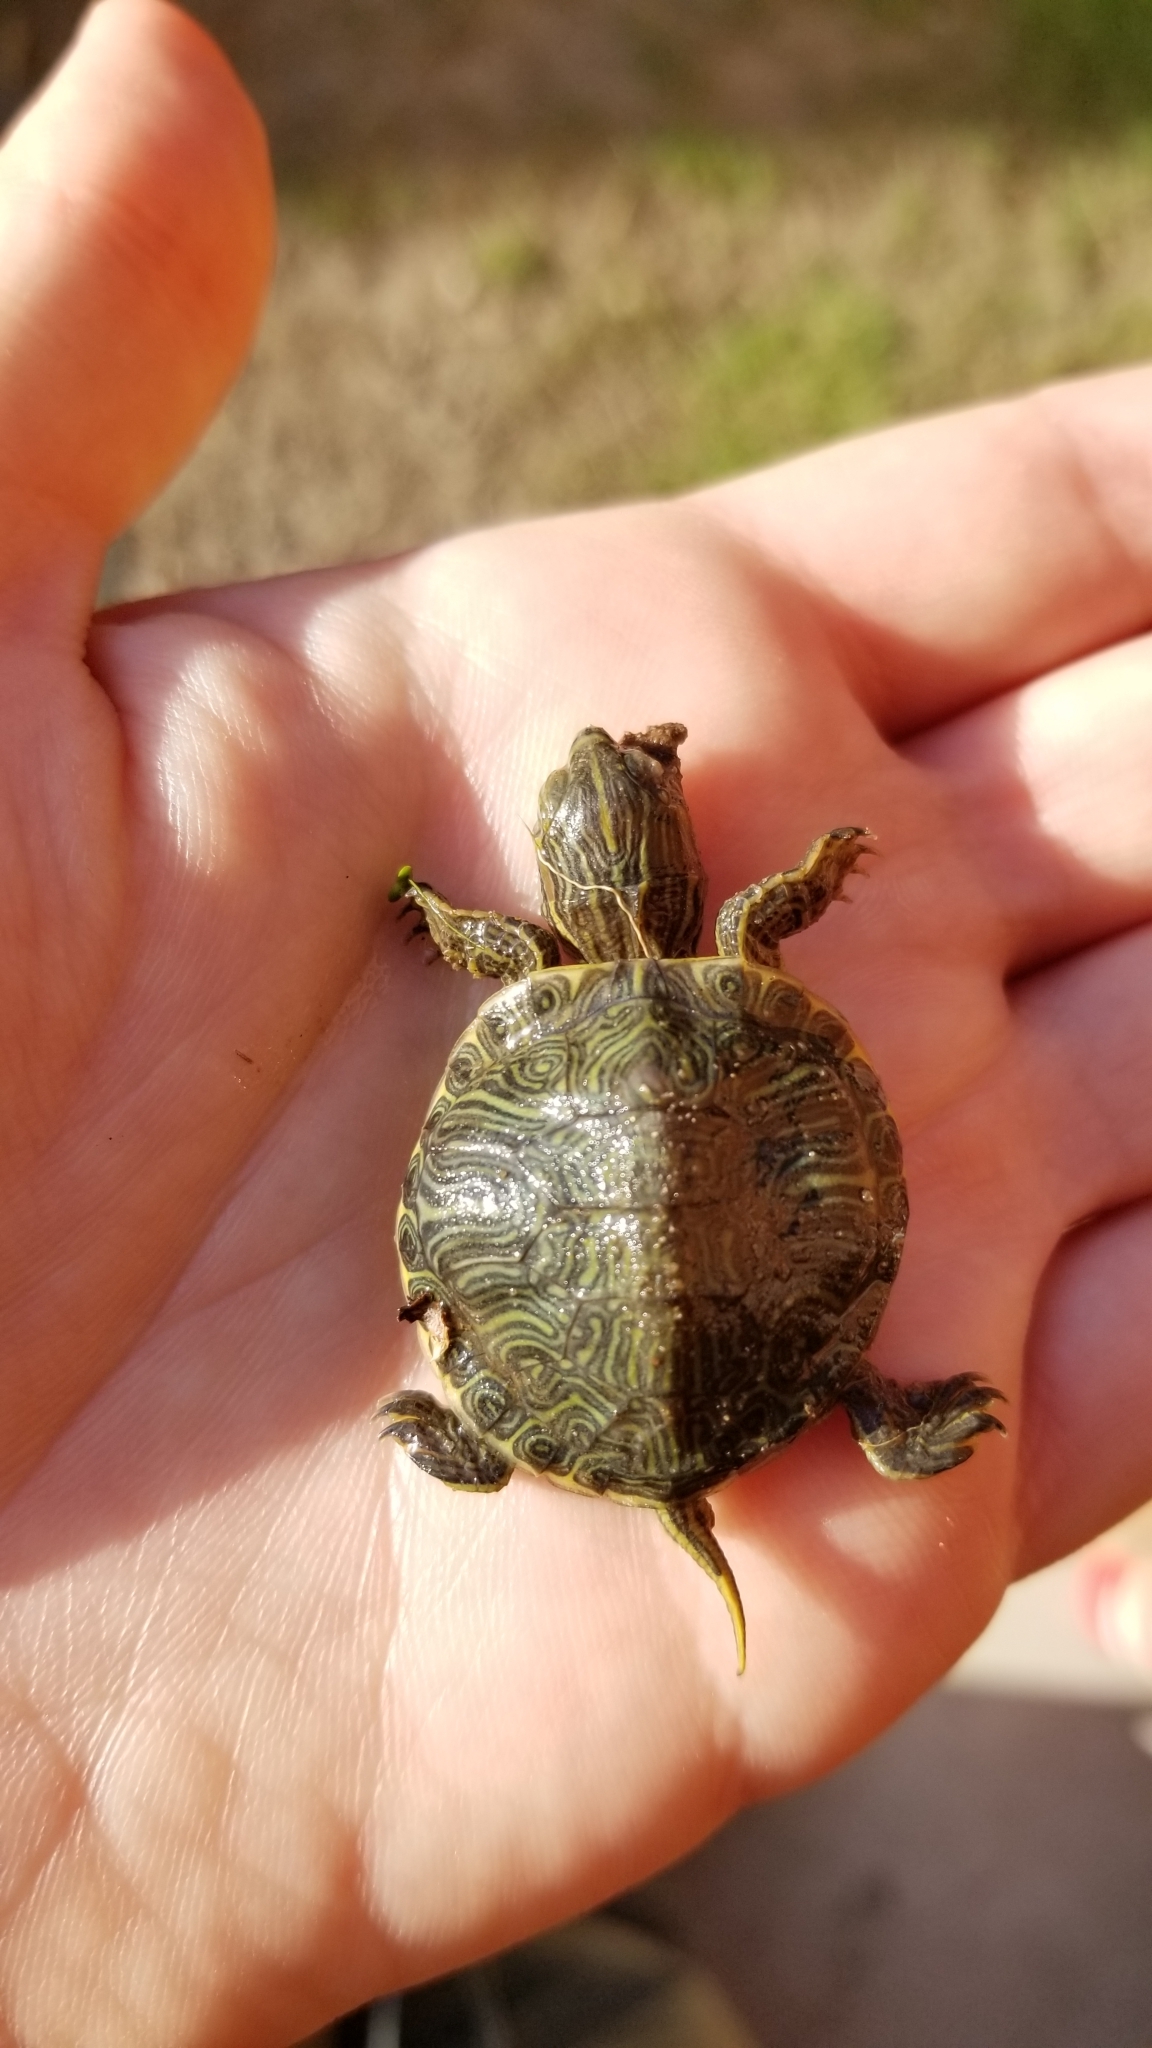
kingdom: Animalia
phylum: Chordata
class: Testudines
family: Emydidae
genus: Trachemys
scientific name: Trachemys scripta
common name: Slider
